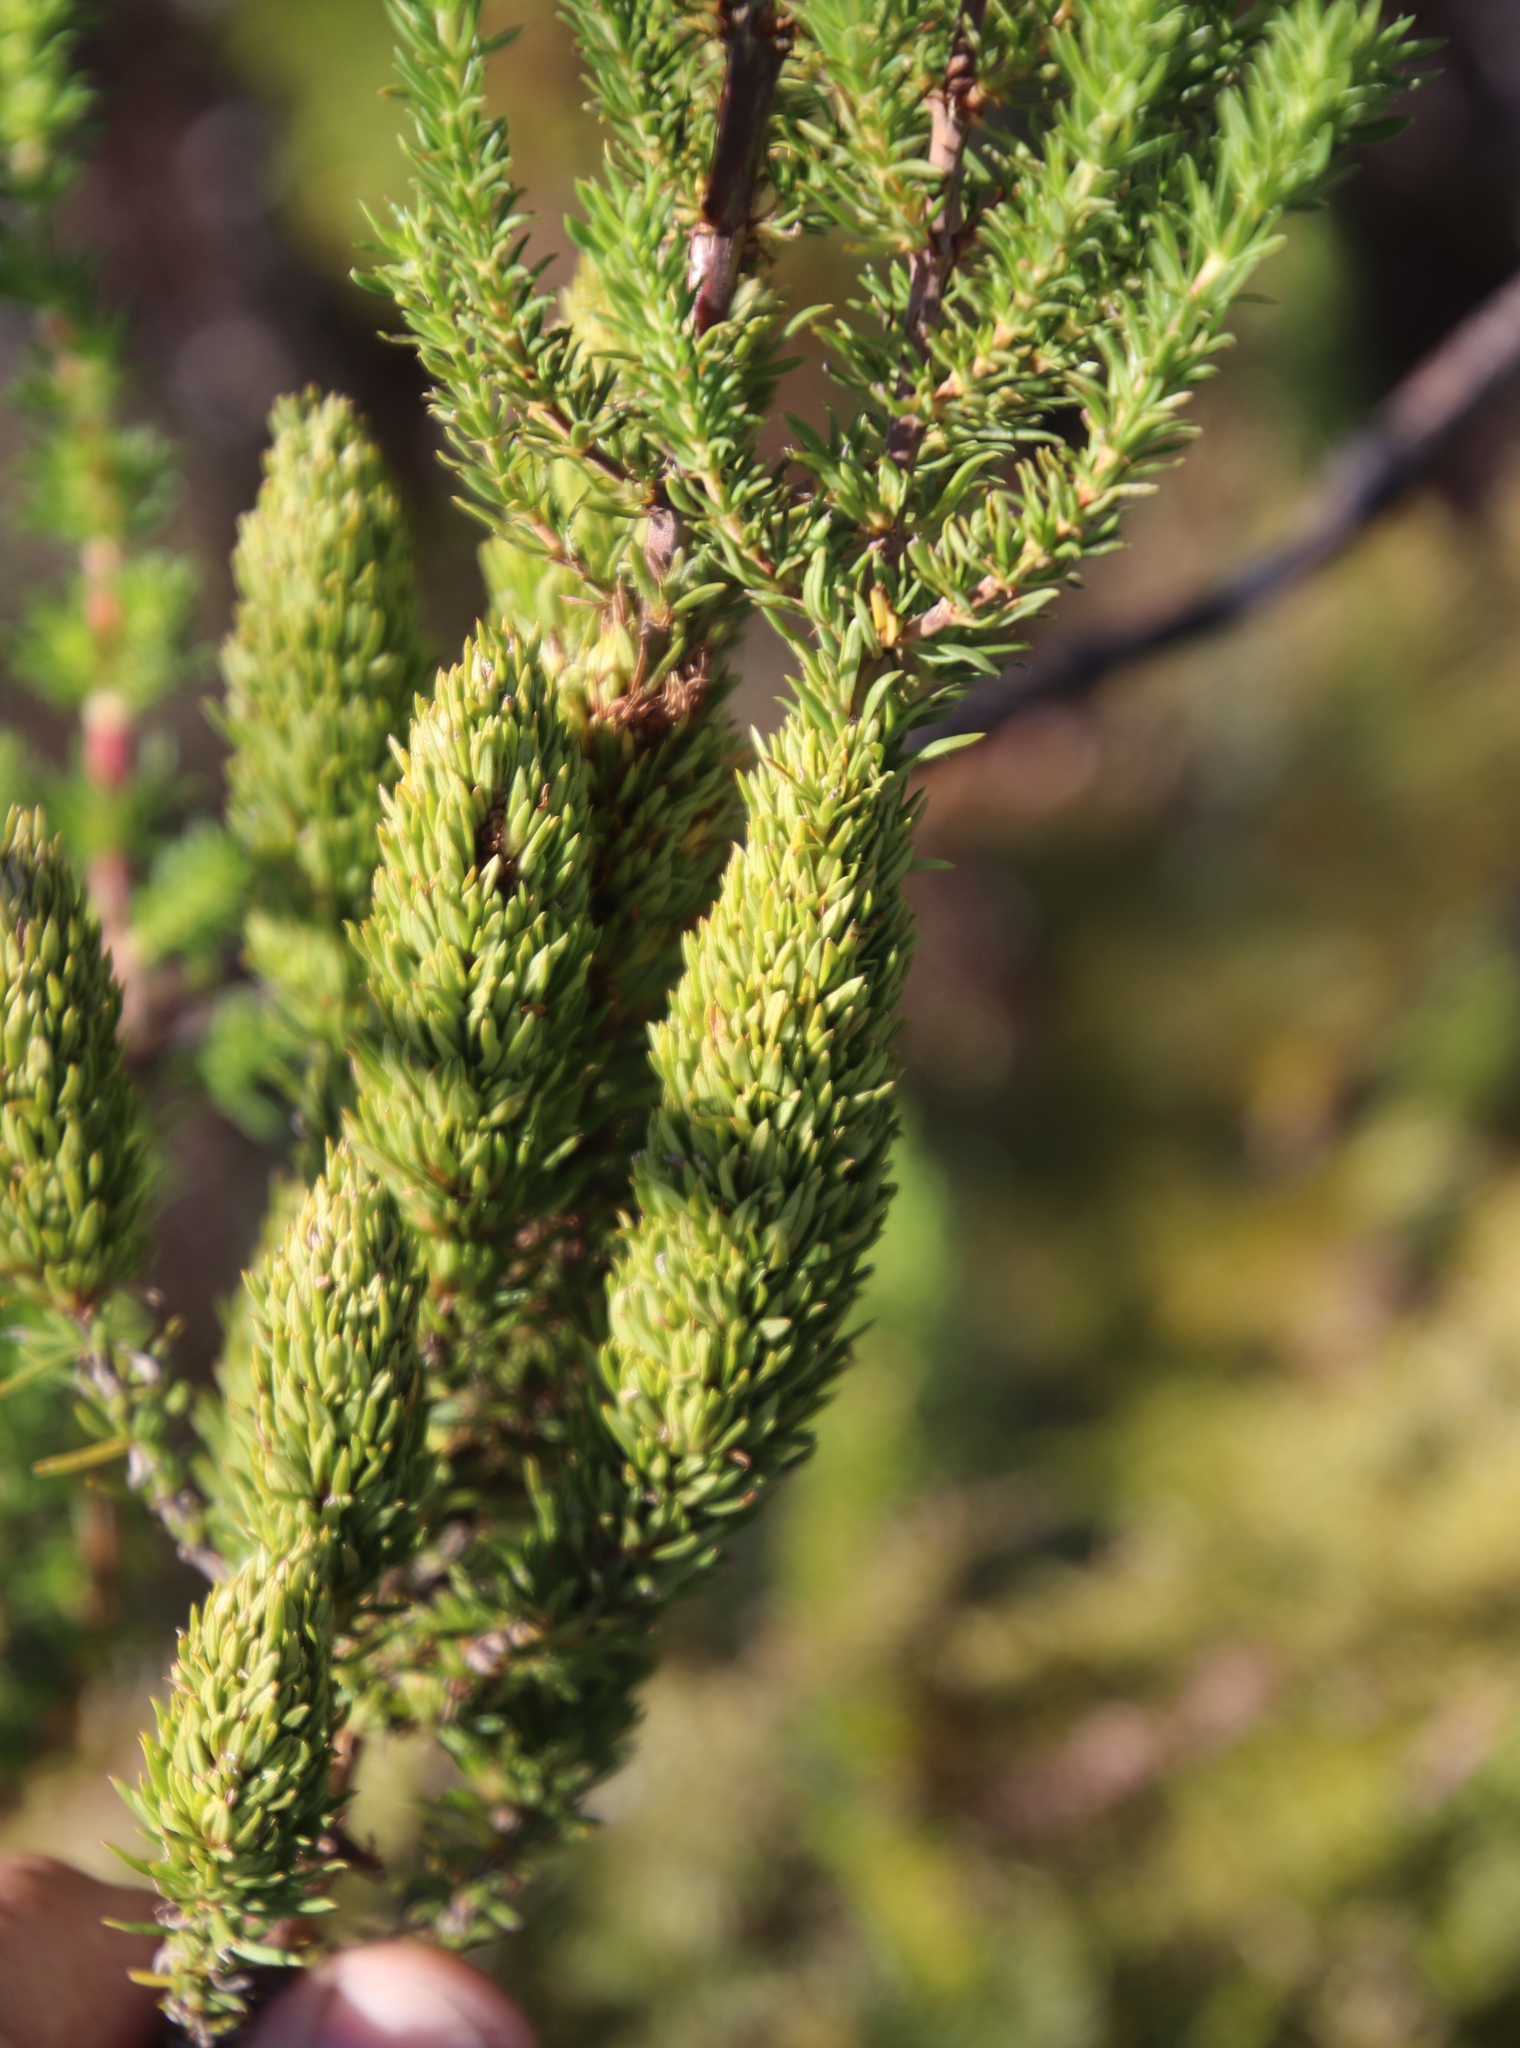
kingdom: Plantae
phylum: Tracheophyta
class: Magnoliopsida
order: Gentianales
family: Rubiaceae
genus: Anthospermum
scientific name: Anthospermum aethiopicum
